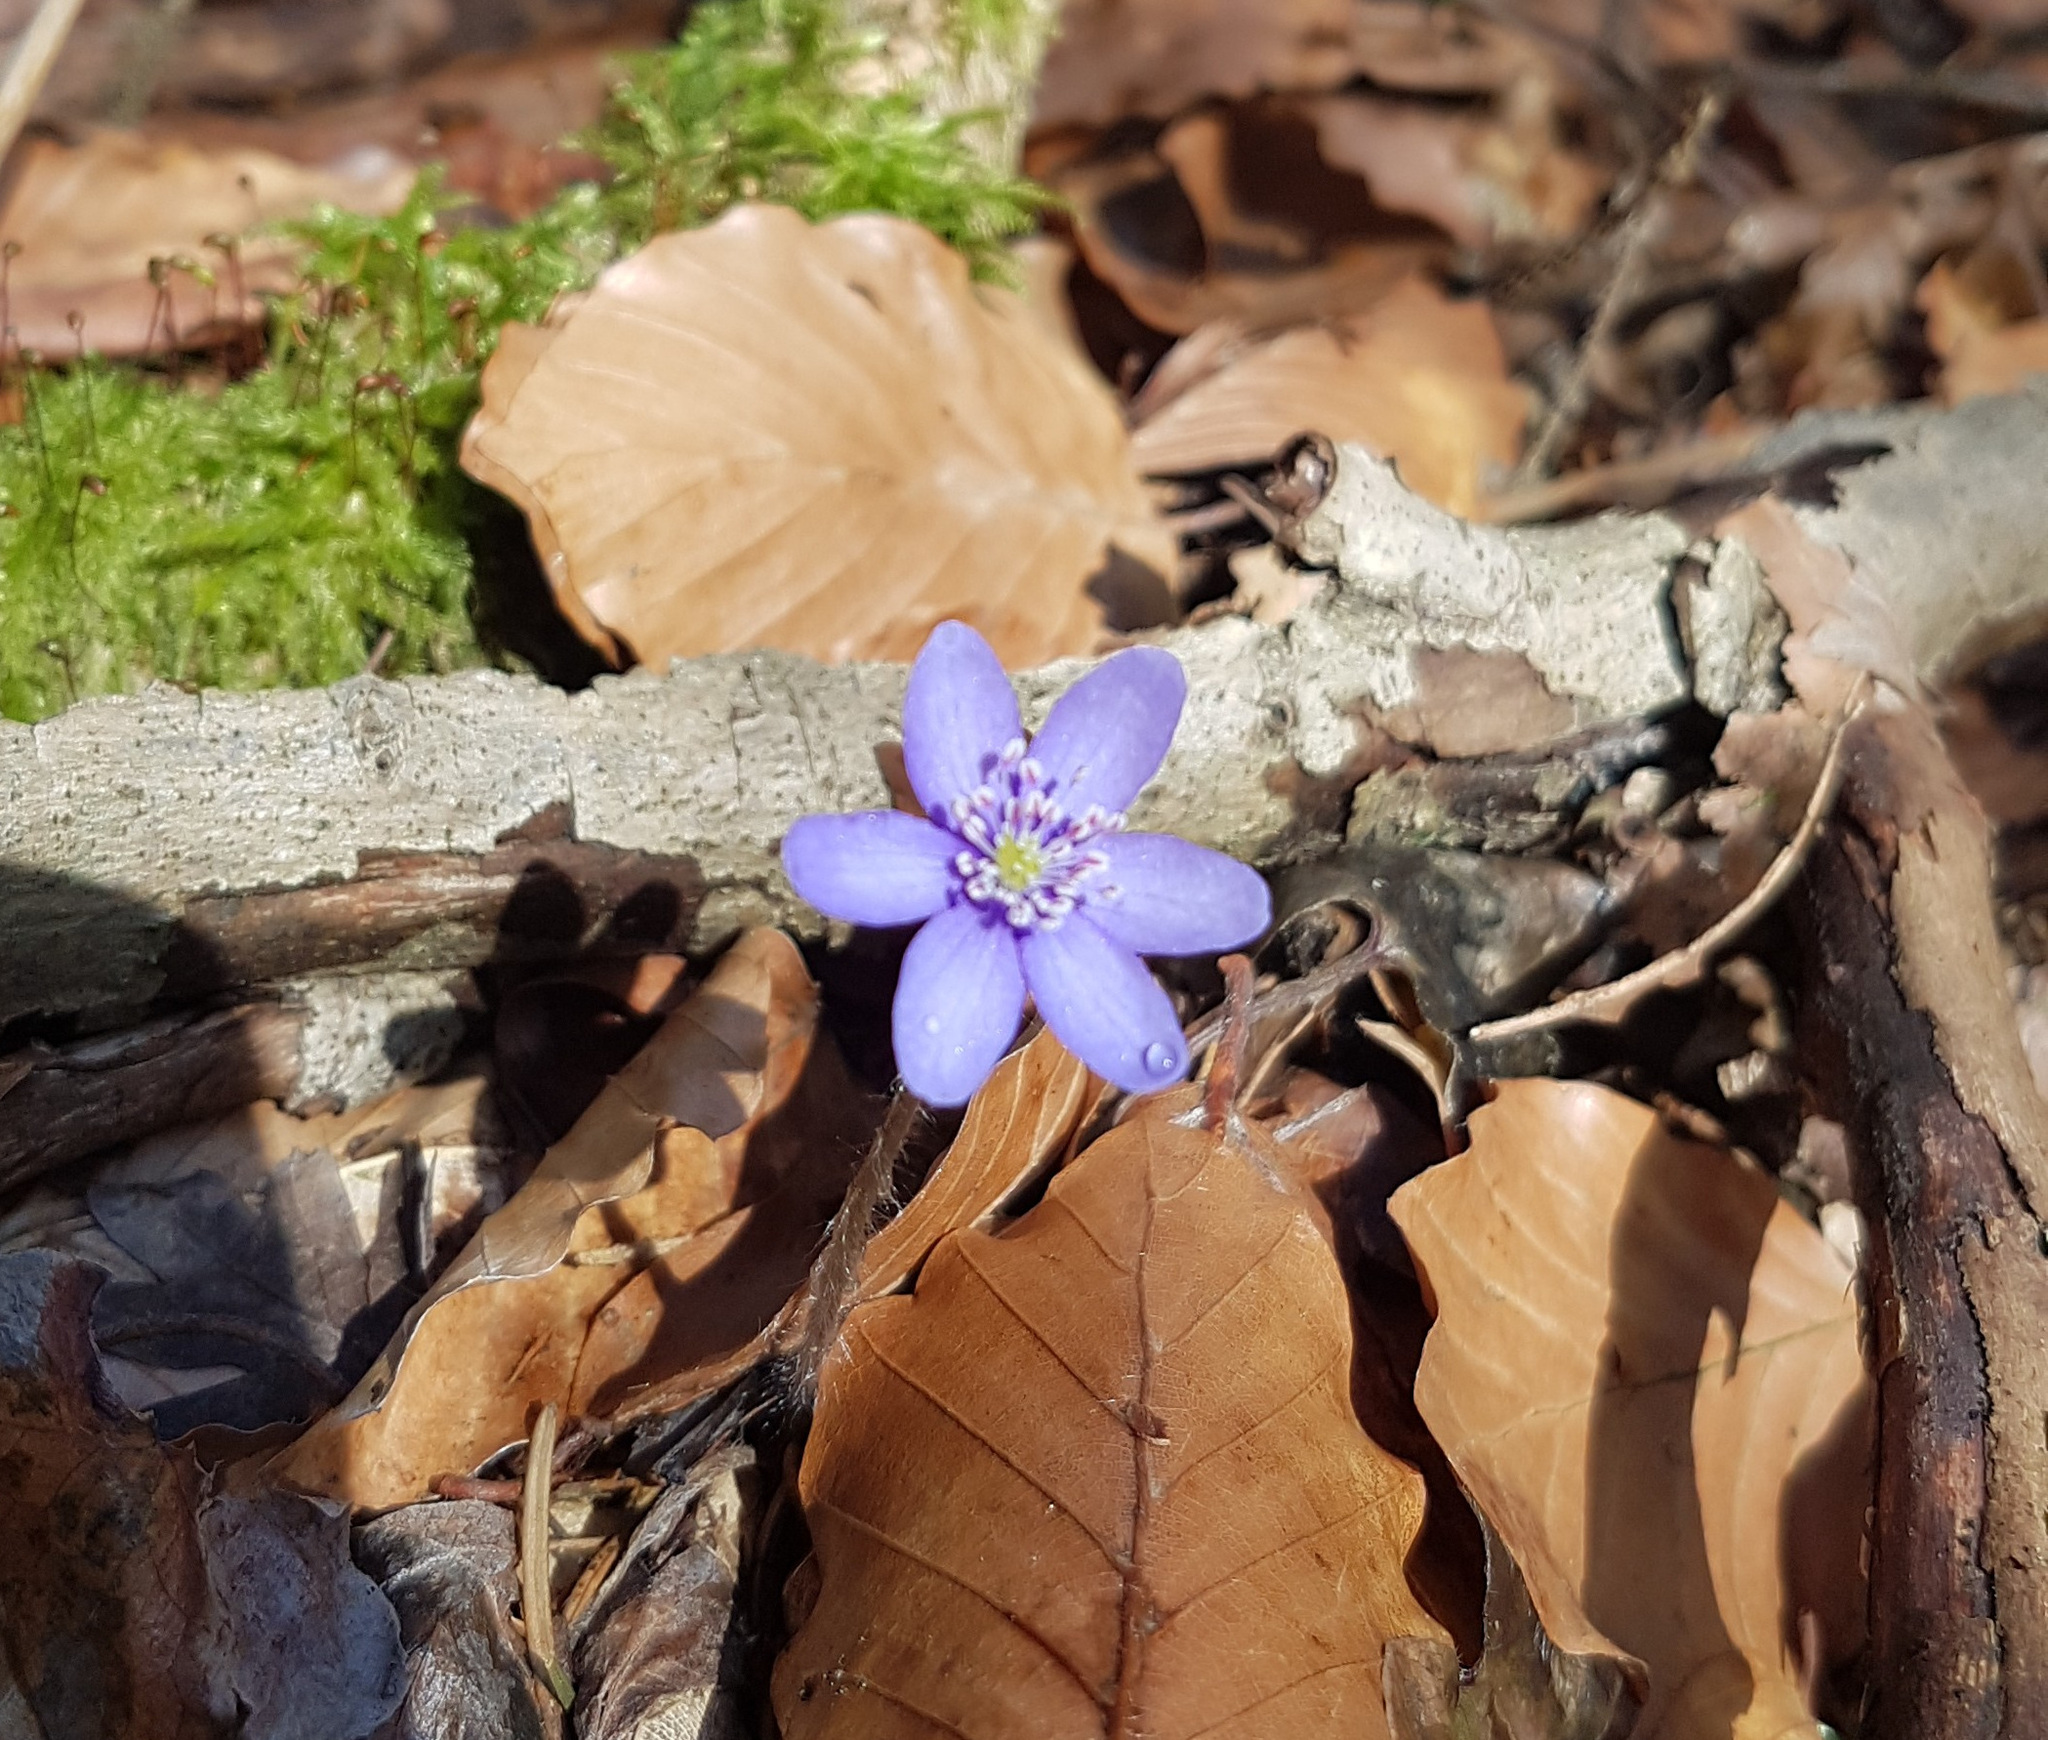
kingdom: Plantae
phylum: Tracheophyta
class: Magnoliopsida
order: Ranunculales
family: Ranunculaceae
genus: Hepatica
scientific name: Hepatica nobilis
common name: Liverleaf
